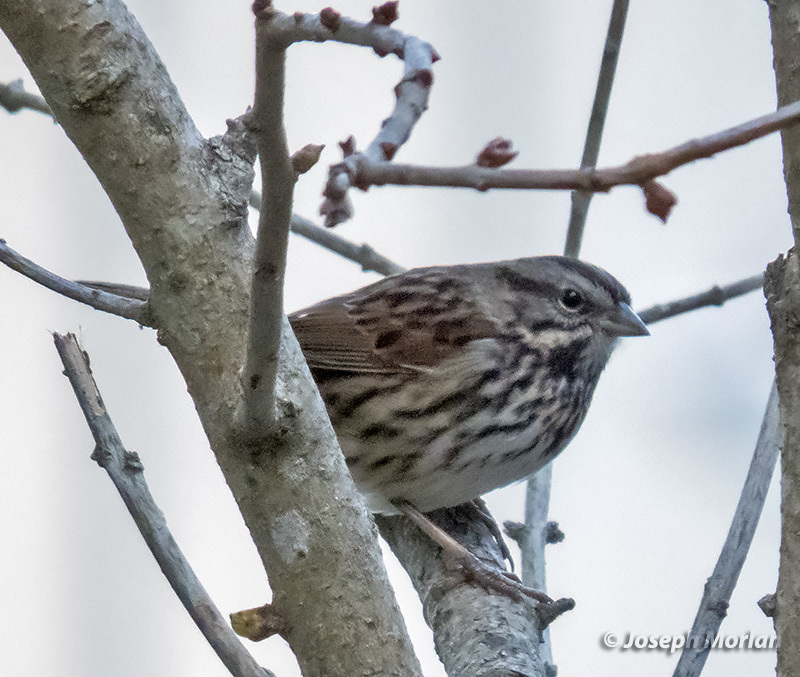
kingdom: Animalia
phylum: Chordata
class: Aves
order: Passeriformes
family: Passerellidae
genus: Melospiza
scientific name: Melospiza melodia
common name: Song sparrow
